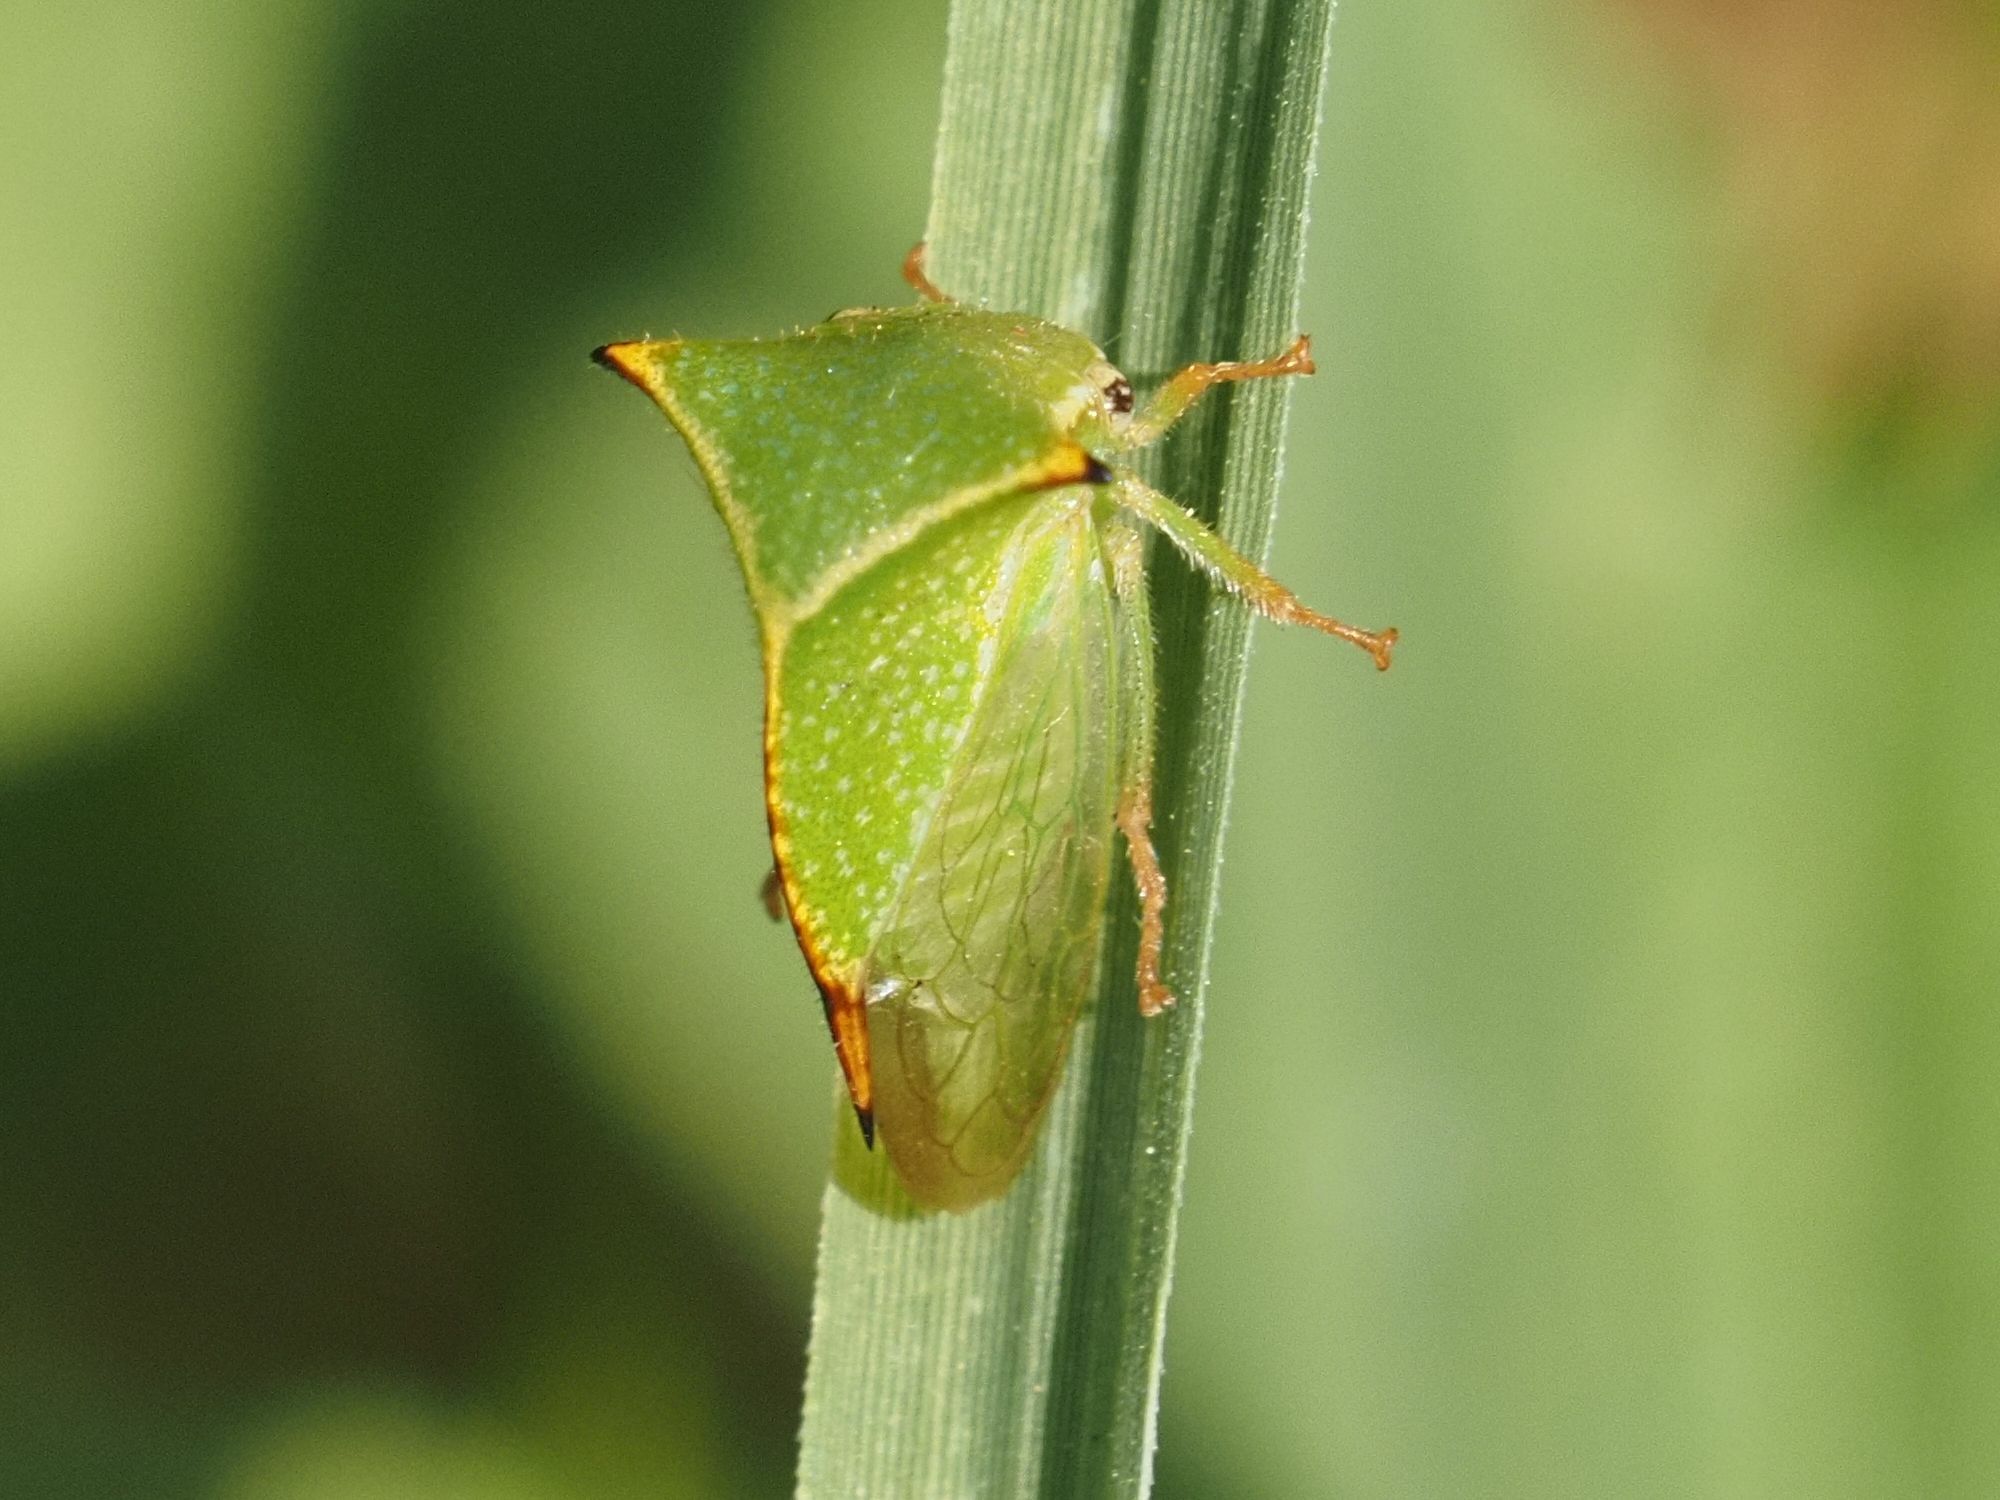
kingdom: Animalia
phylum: Arthropoda
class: Insecta
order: Hemiptera
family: Membracidae
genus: Stictocephala
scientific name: Stictocephala bisonia
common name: American buffalo treehopper
